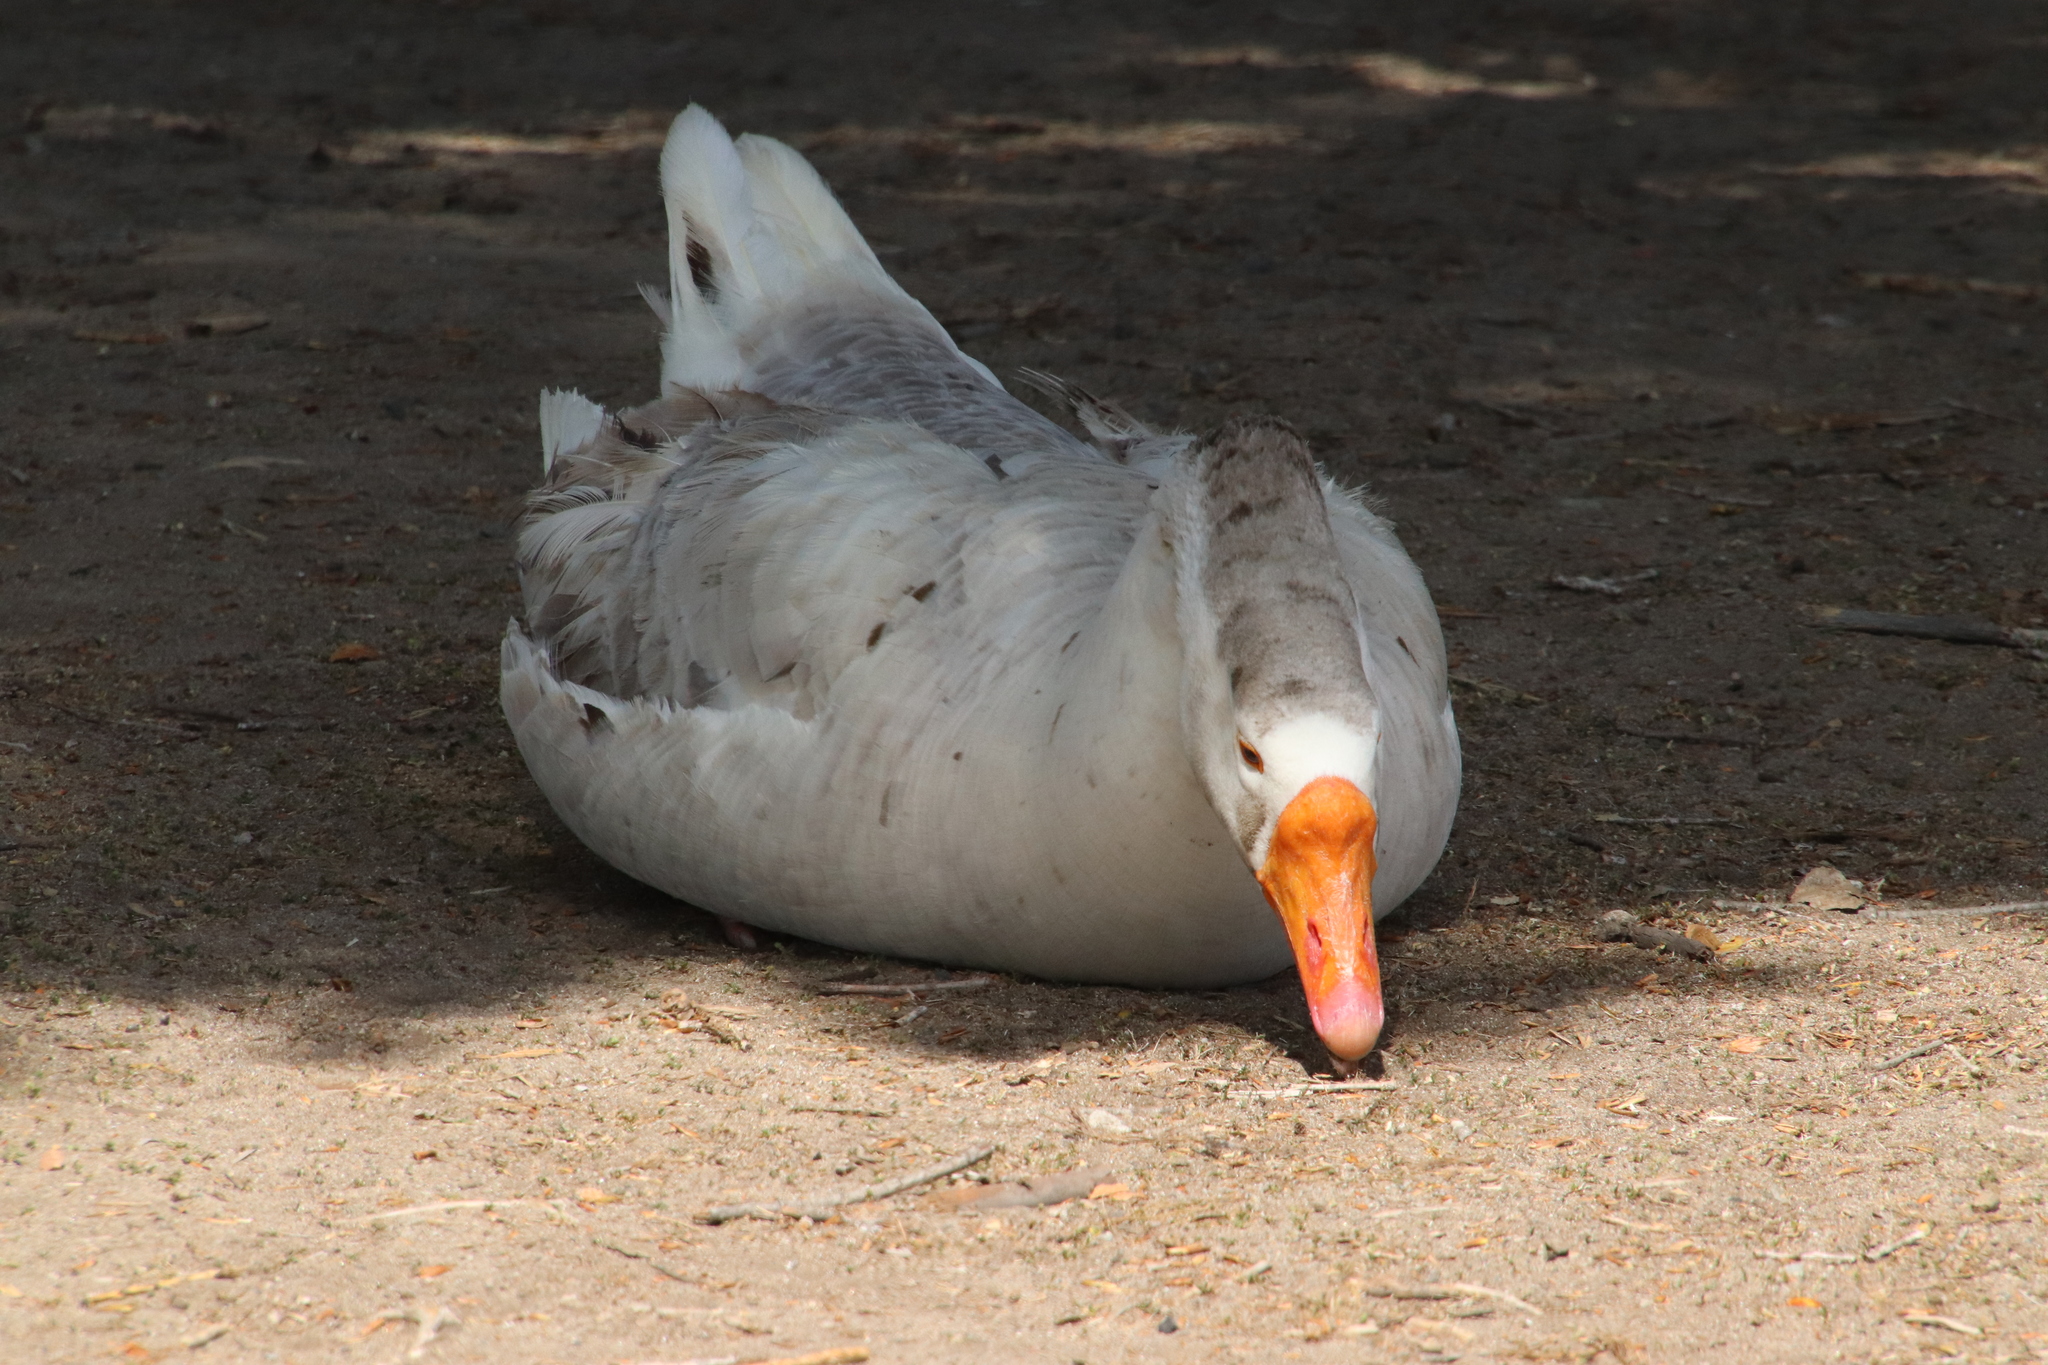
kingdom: Animalia
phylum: Chordata
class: Aves
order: Anseriformes
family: Anatidae
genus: Anser
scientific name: Anser
